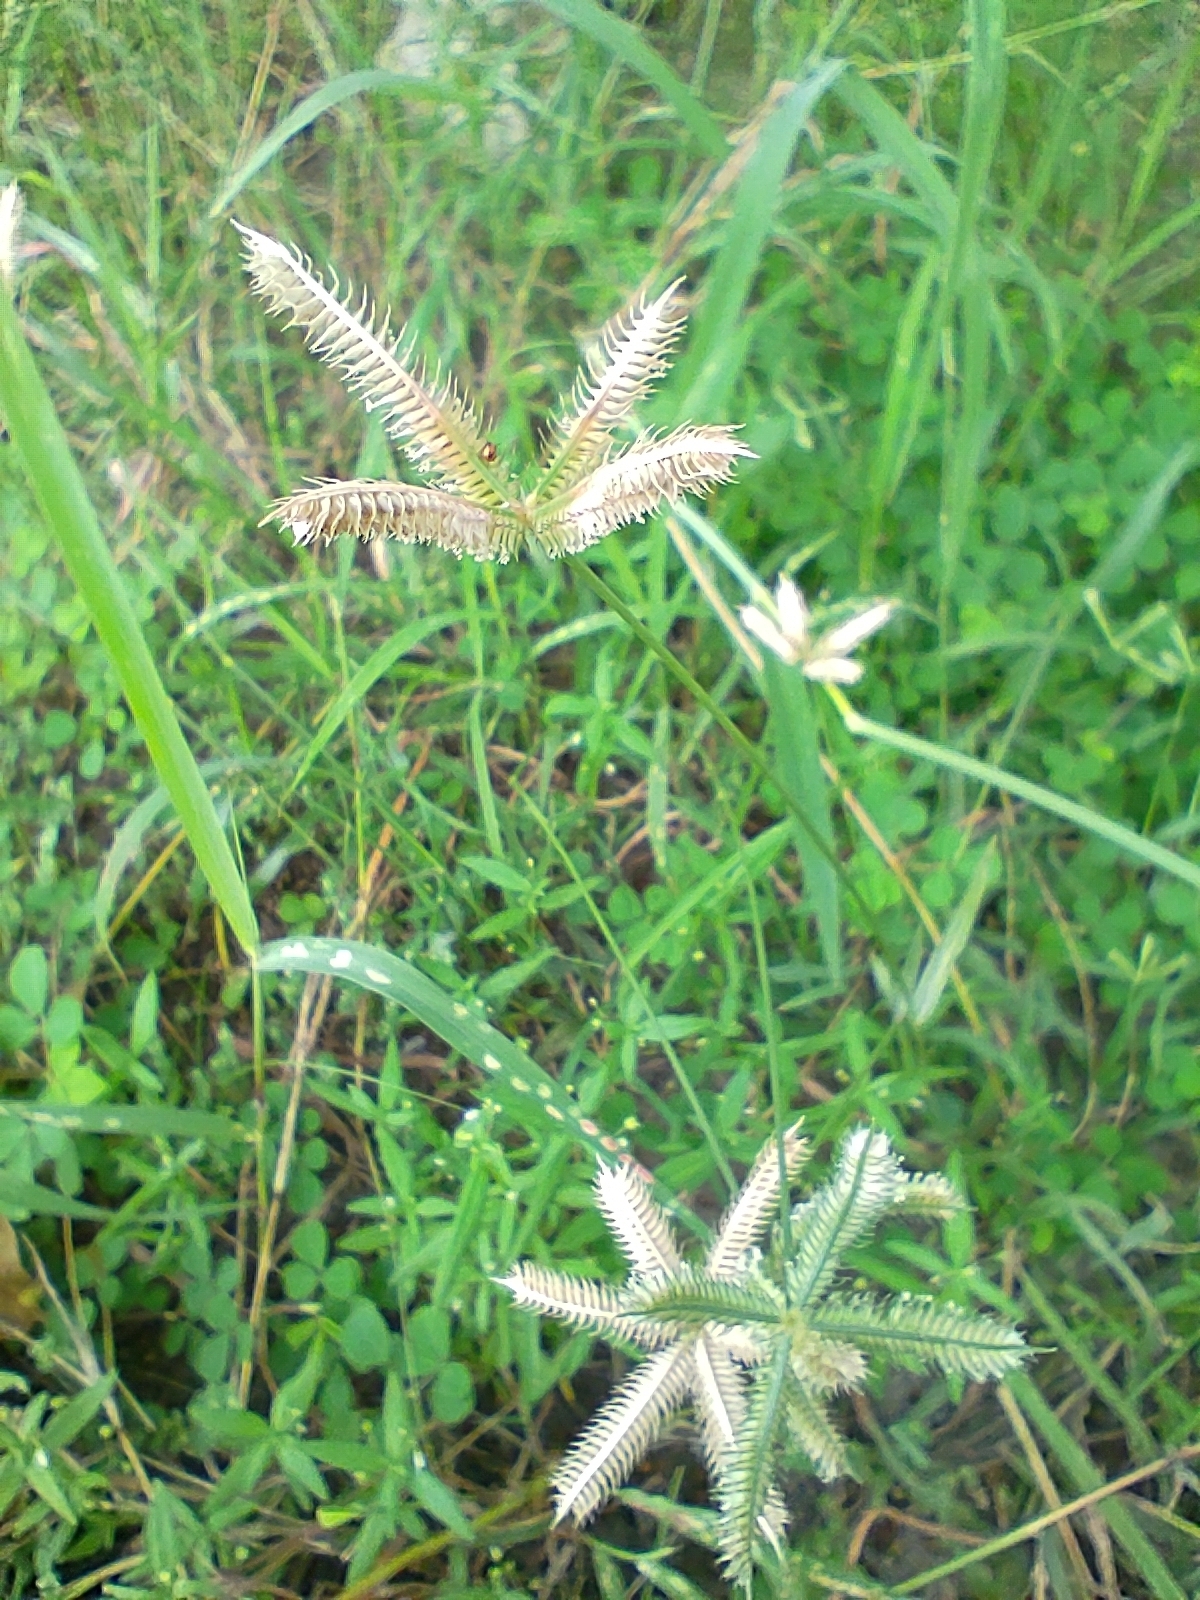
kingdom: Plantae
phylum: Tracheophyta
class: Liliopsida
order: Poales
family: Poaceae
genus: Dactyloctenium
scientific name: Dactyloctenium aegyptium
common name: Egyptian grass
